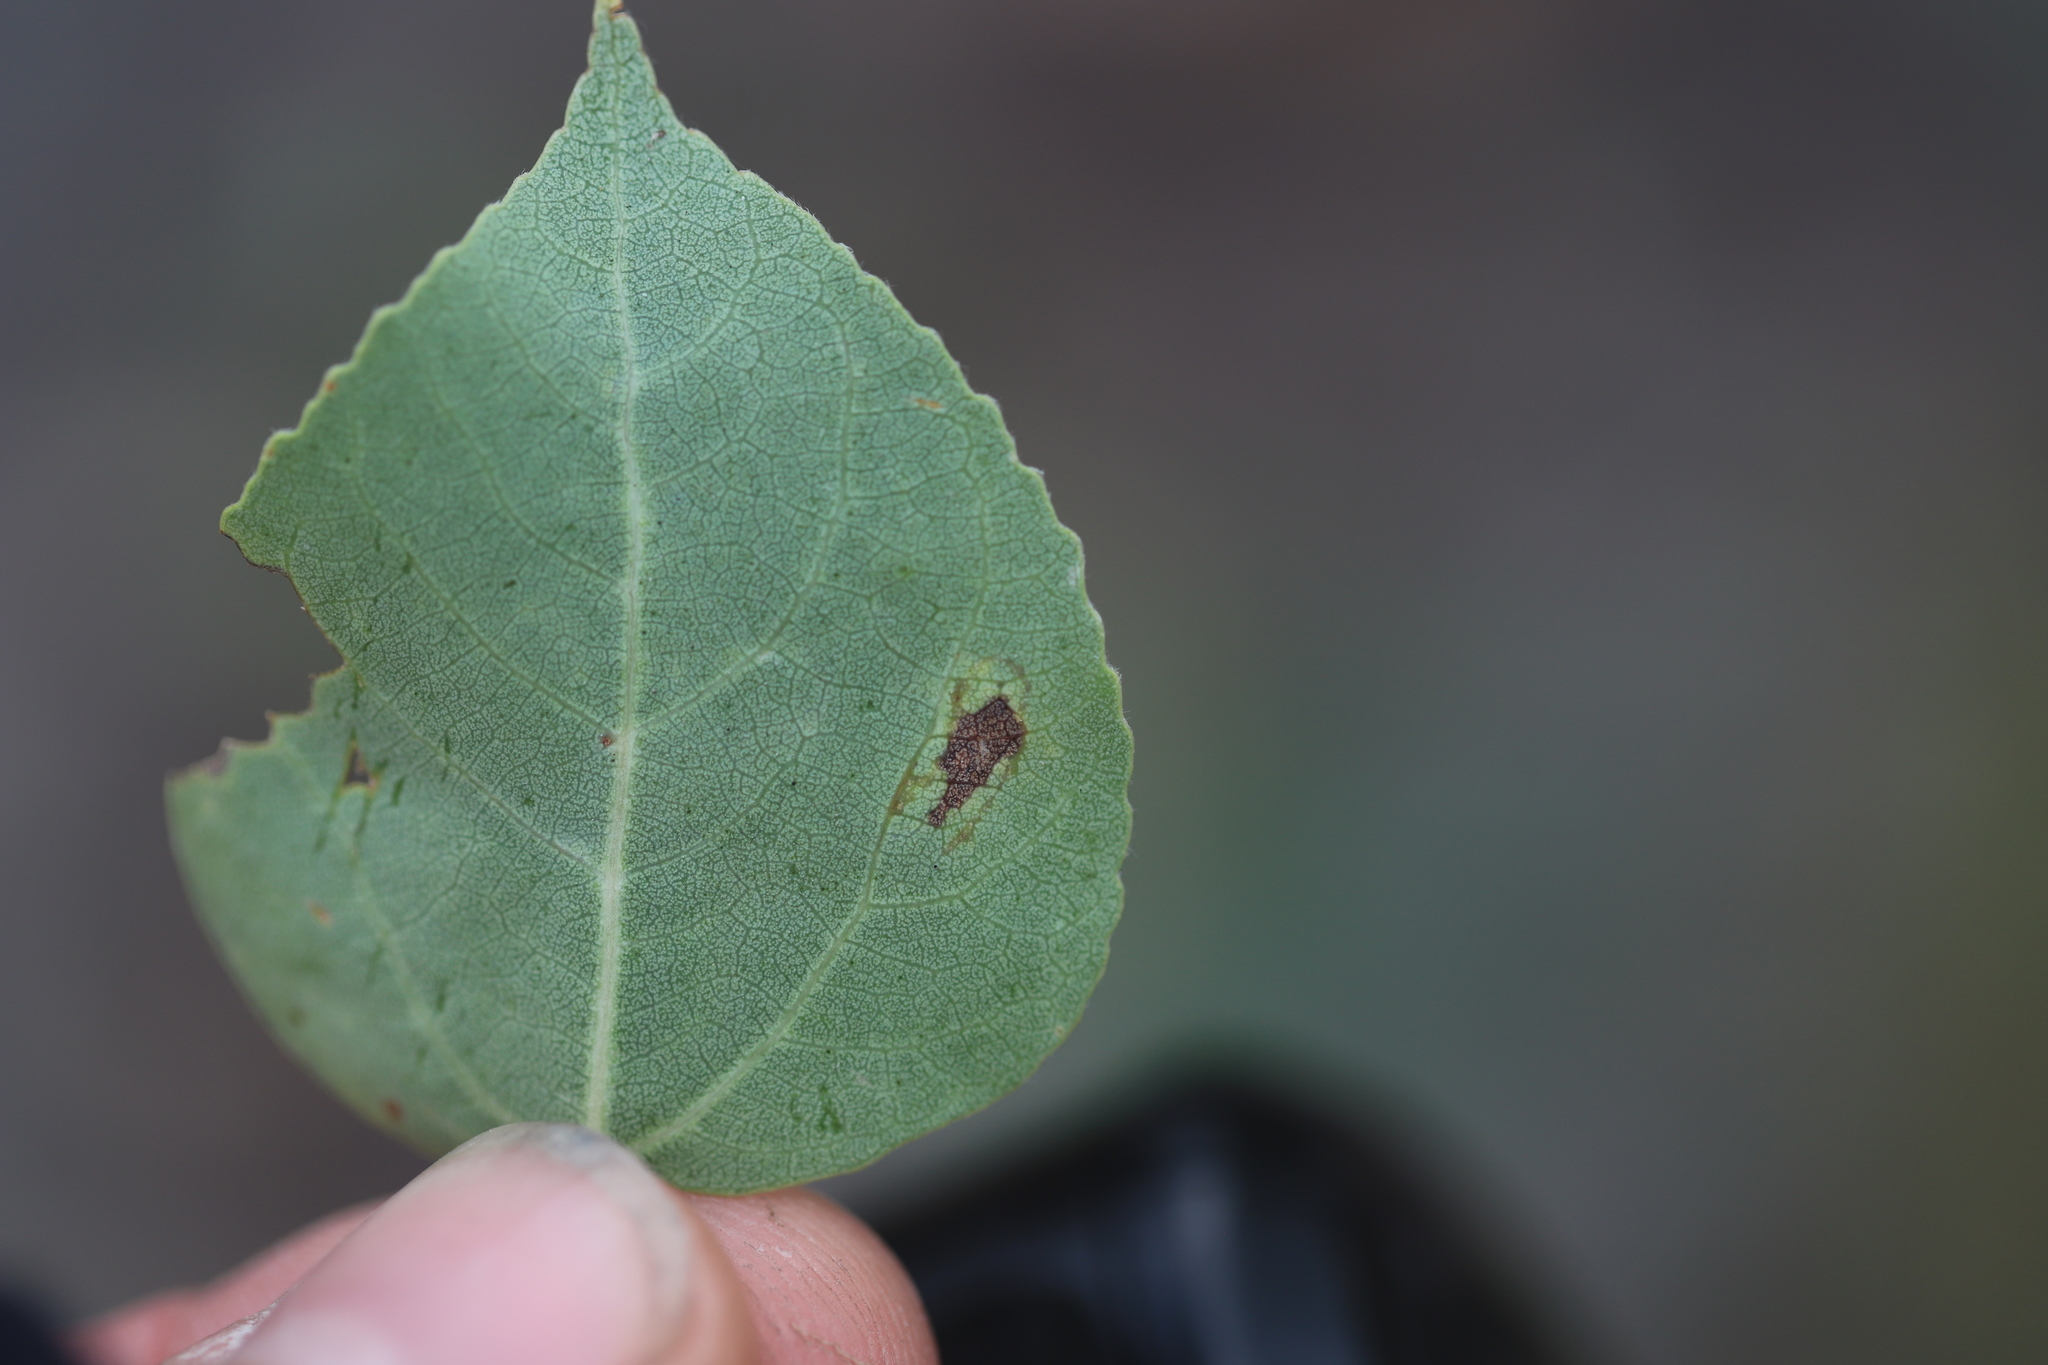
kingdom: Animalia
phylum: Arthropoda
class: Insecta
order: Lepidoptera
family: Gracillariidae
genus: Phyllocnistis
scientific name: Phyllocnistis populiella
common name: Aspen serpentine leafminer moth
